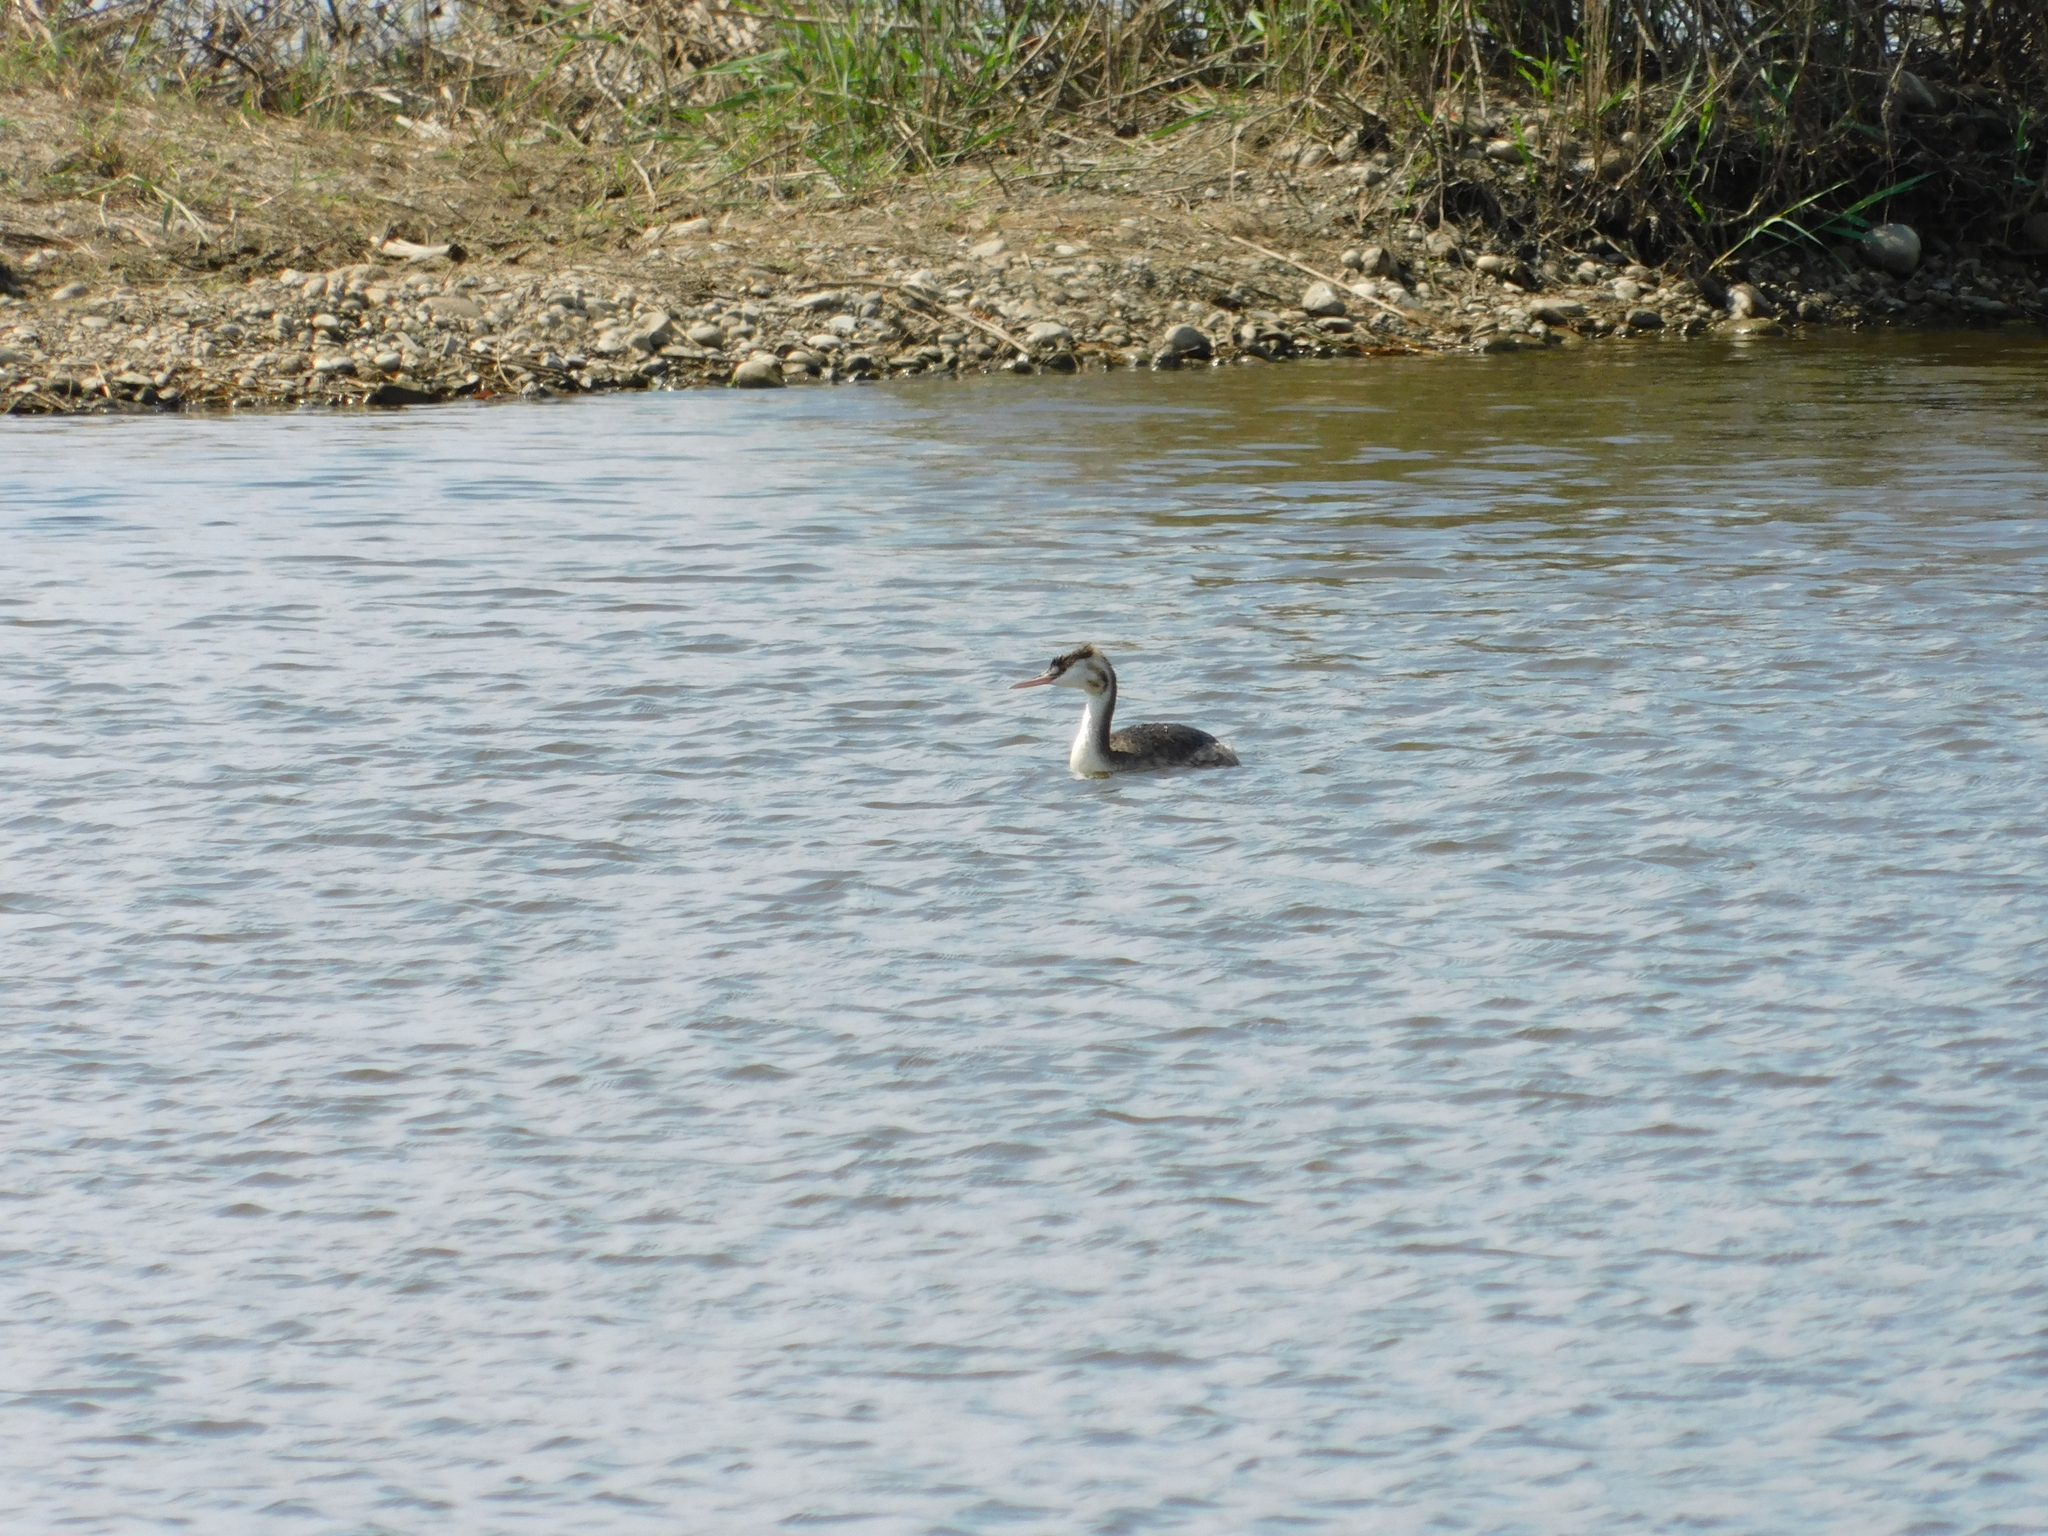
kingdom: Animalia
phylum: Chordata
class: Aves
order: Podicipediformes
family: Podicipedidae
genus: Podiceps
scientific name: Podiceps cristatus
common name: Great crested grebe
